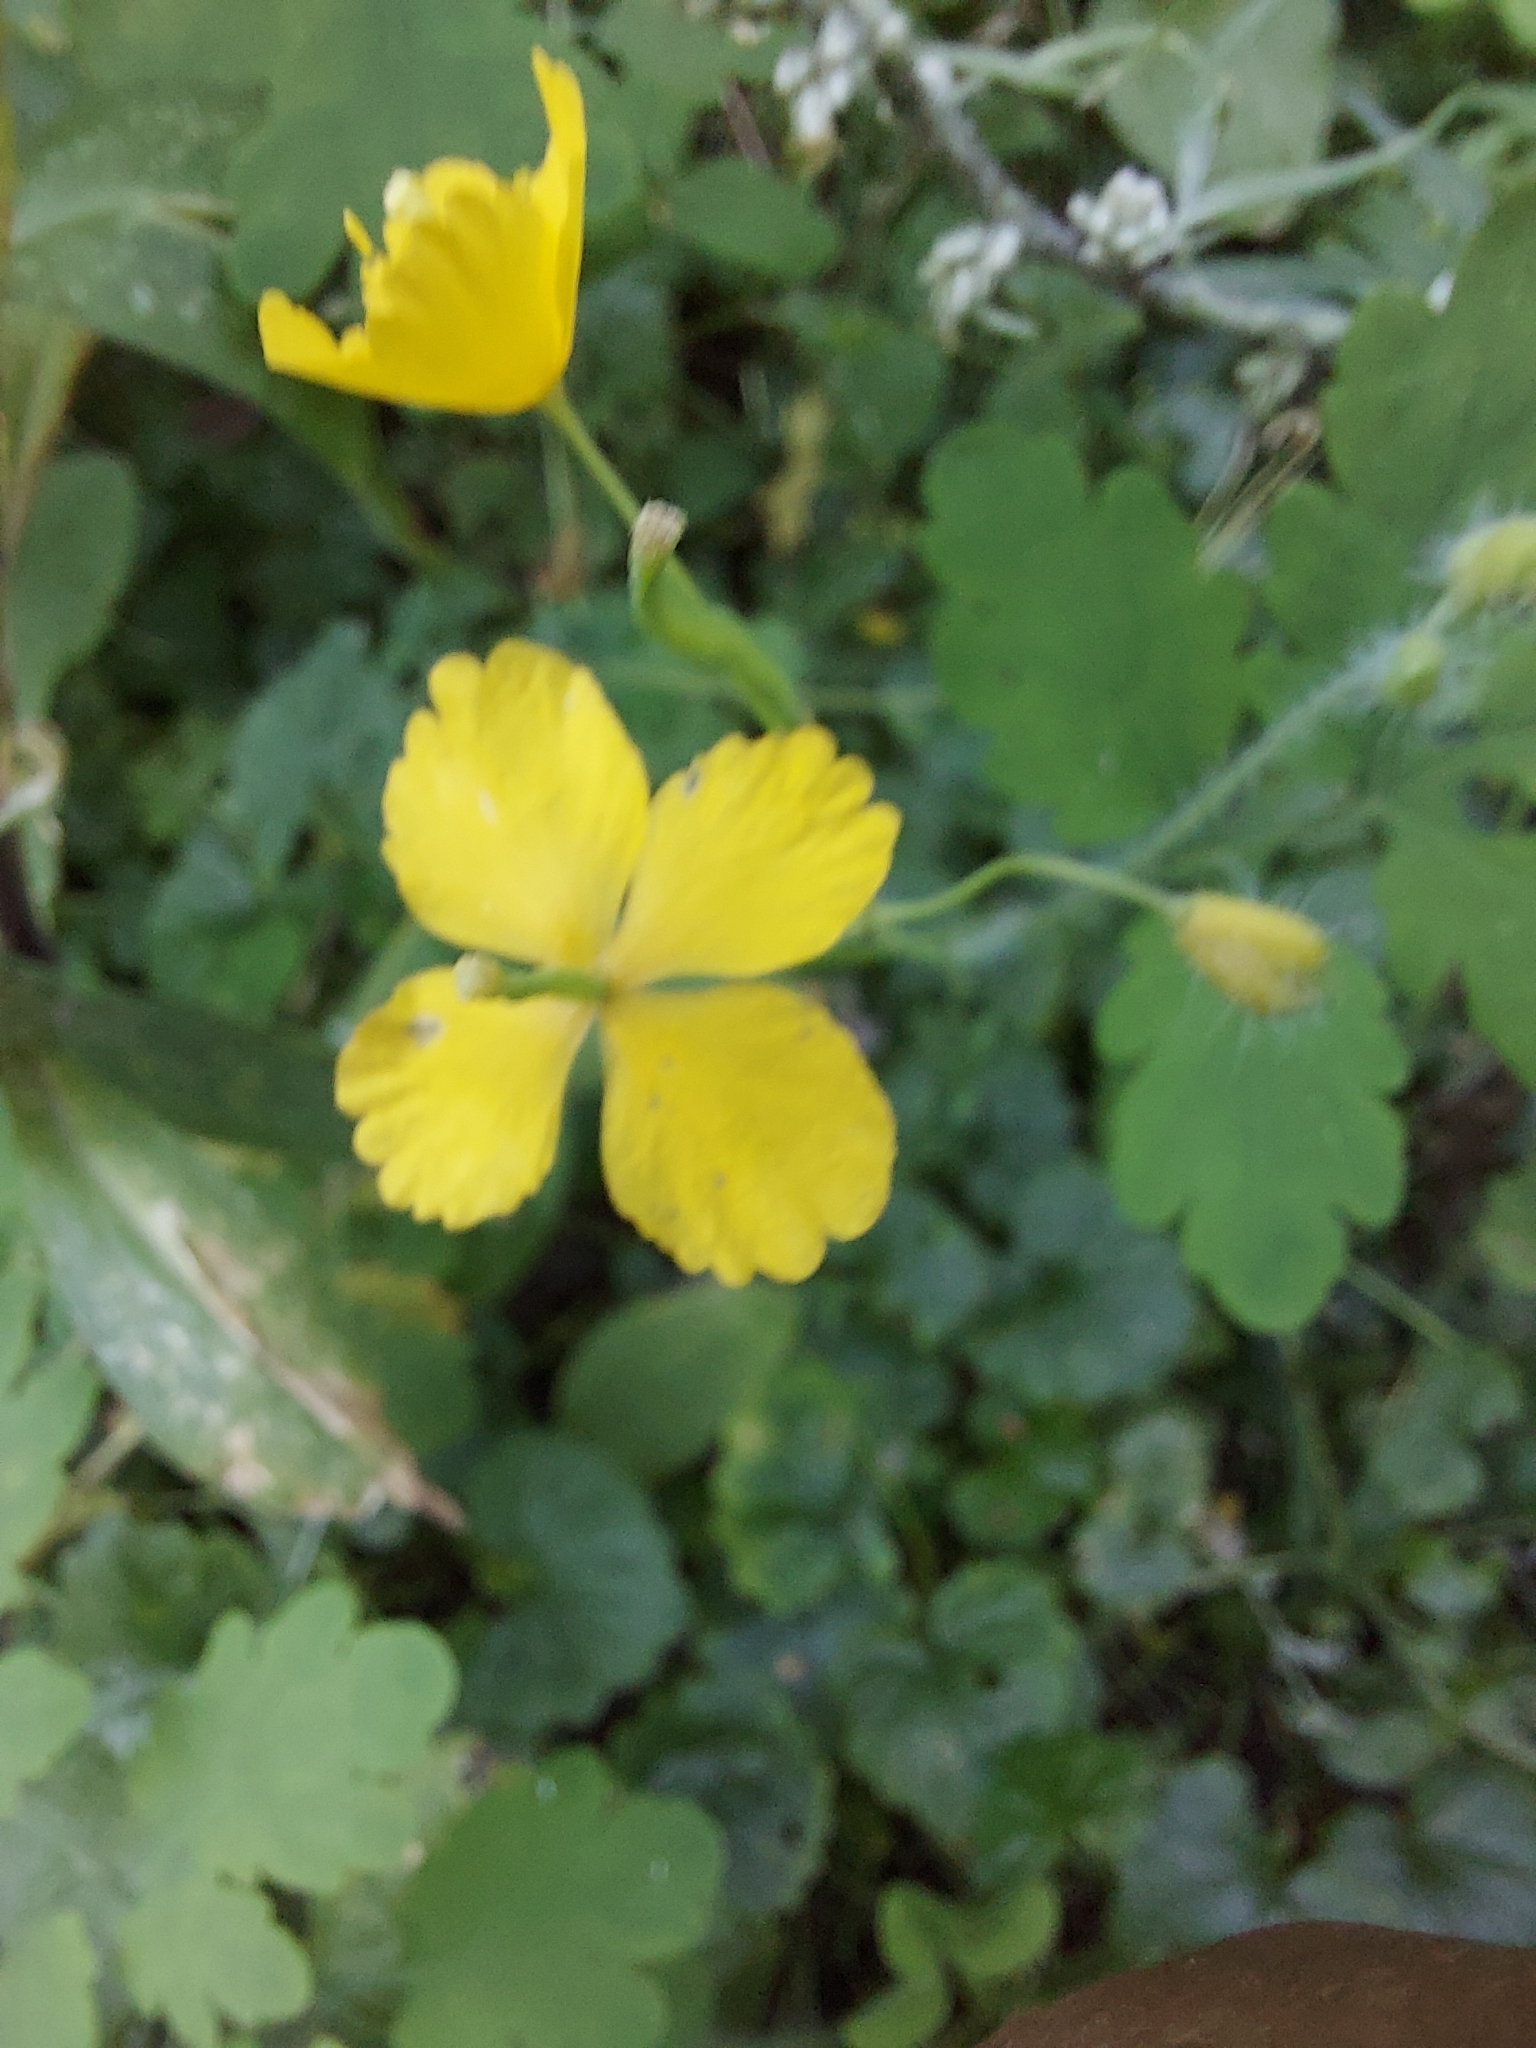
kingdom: Plantae
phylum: Tracheophyta
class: Magnoliopsida
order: Ranunculales
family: Papaveraceae
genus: Chelidonium
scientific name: Chelidonium majus
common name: Greater celandine
